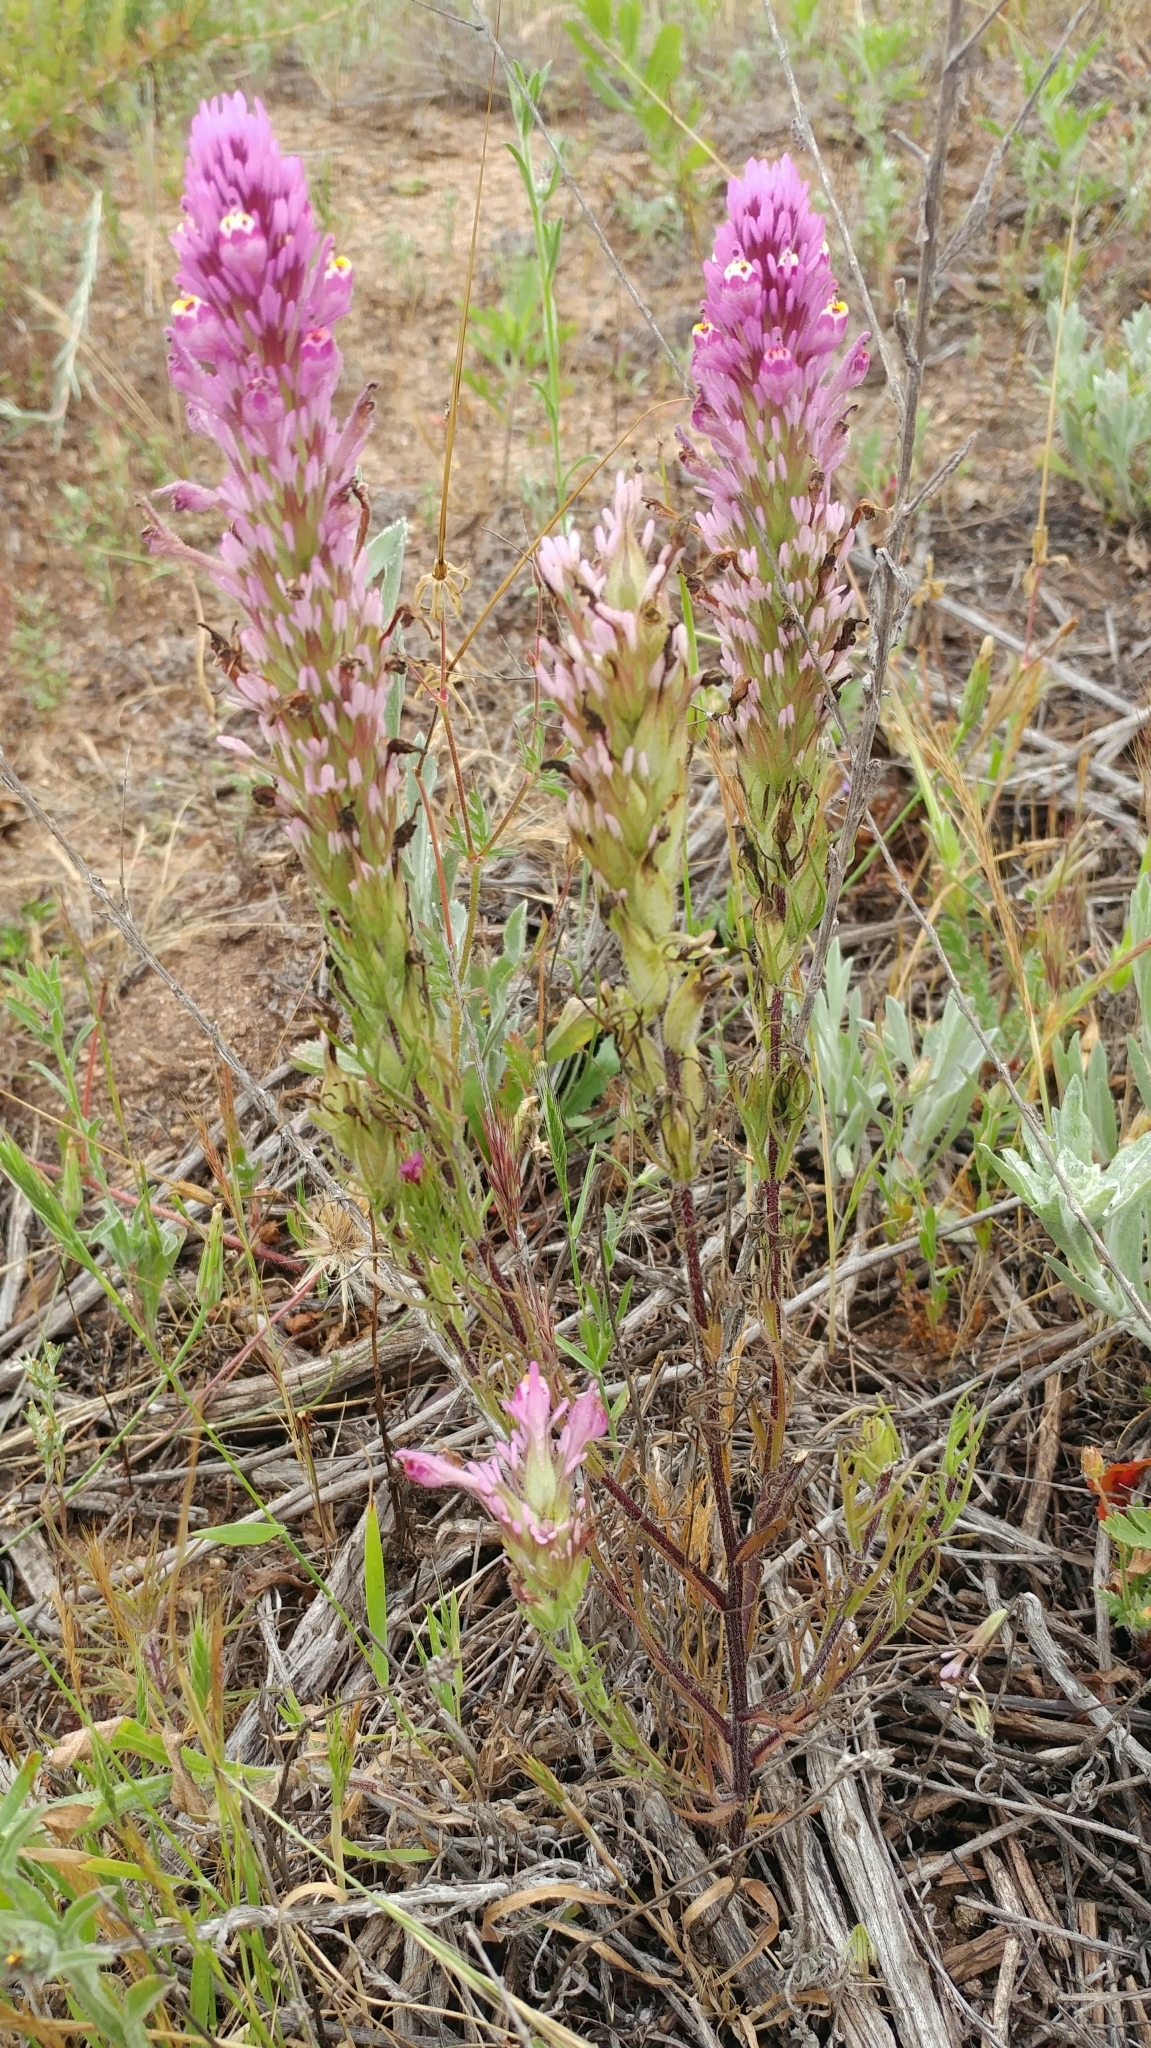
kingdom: Plantae
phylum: Tracheophyta
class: Magnoliopsida
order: Lamiales
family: Orobanchaceae
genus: Castilleja
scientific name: Castilleja exserta
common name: Purple owl-clover
